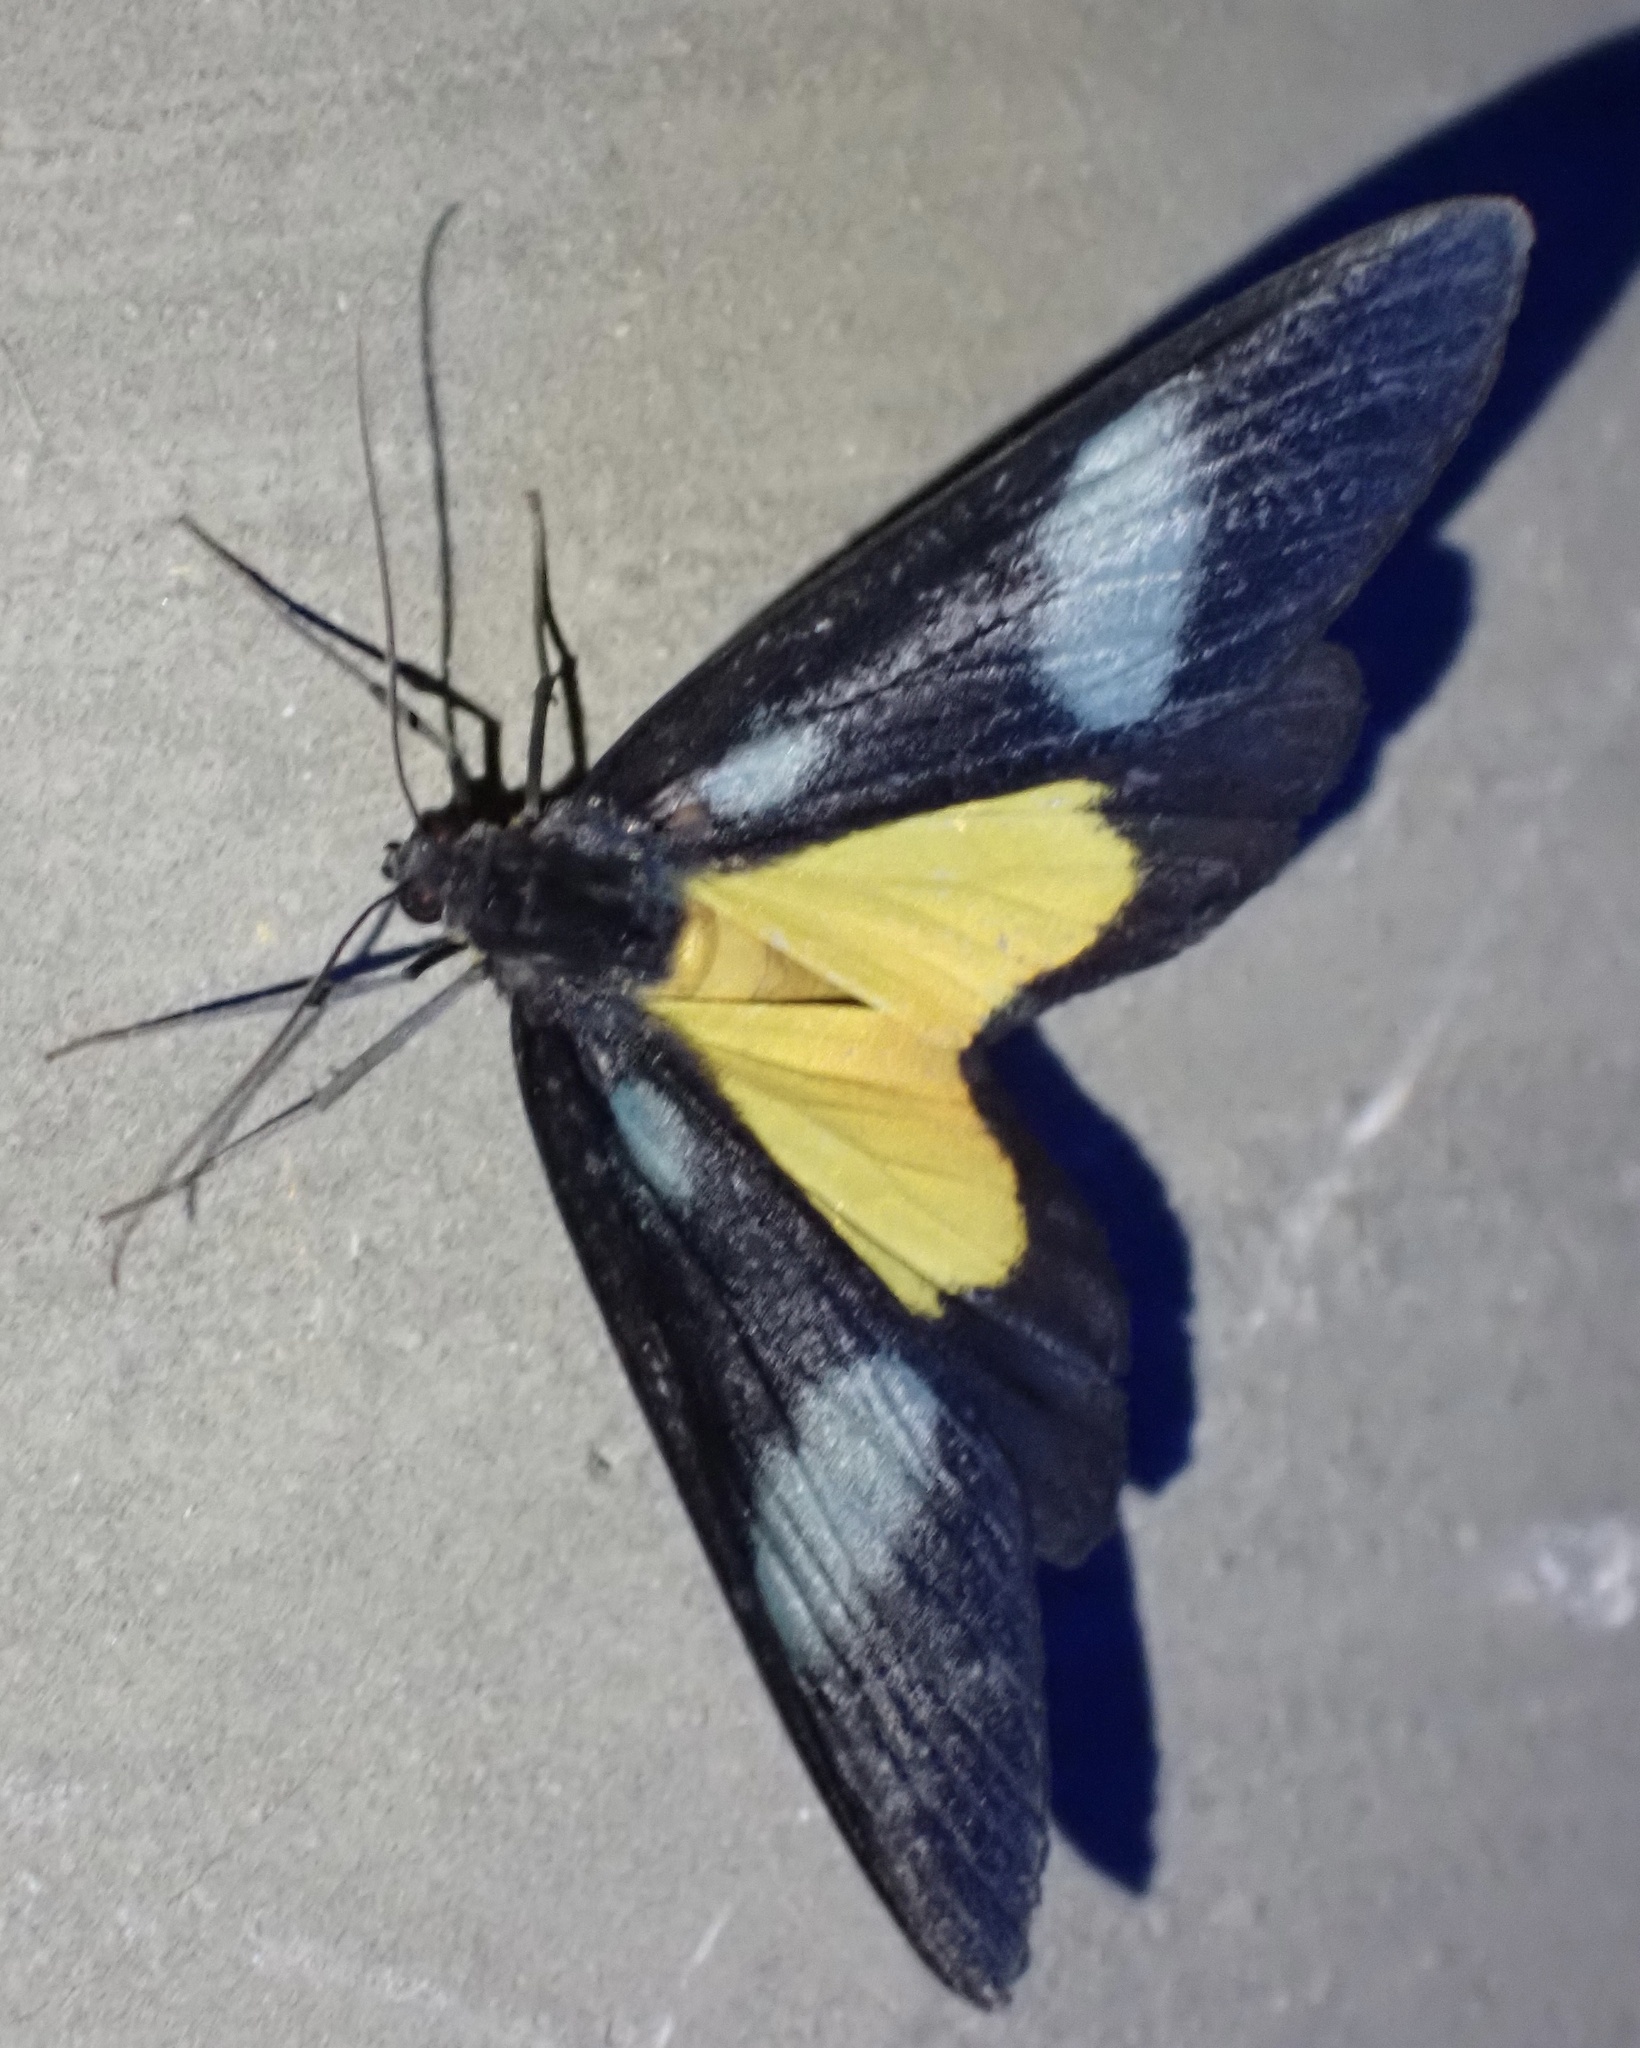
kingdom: Animalia
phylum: Arthropoda
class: Insecta
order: Lepidoptera
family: Geometridae
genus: Lobocraspeda
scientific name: Lobocraspeda latefascia
